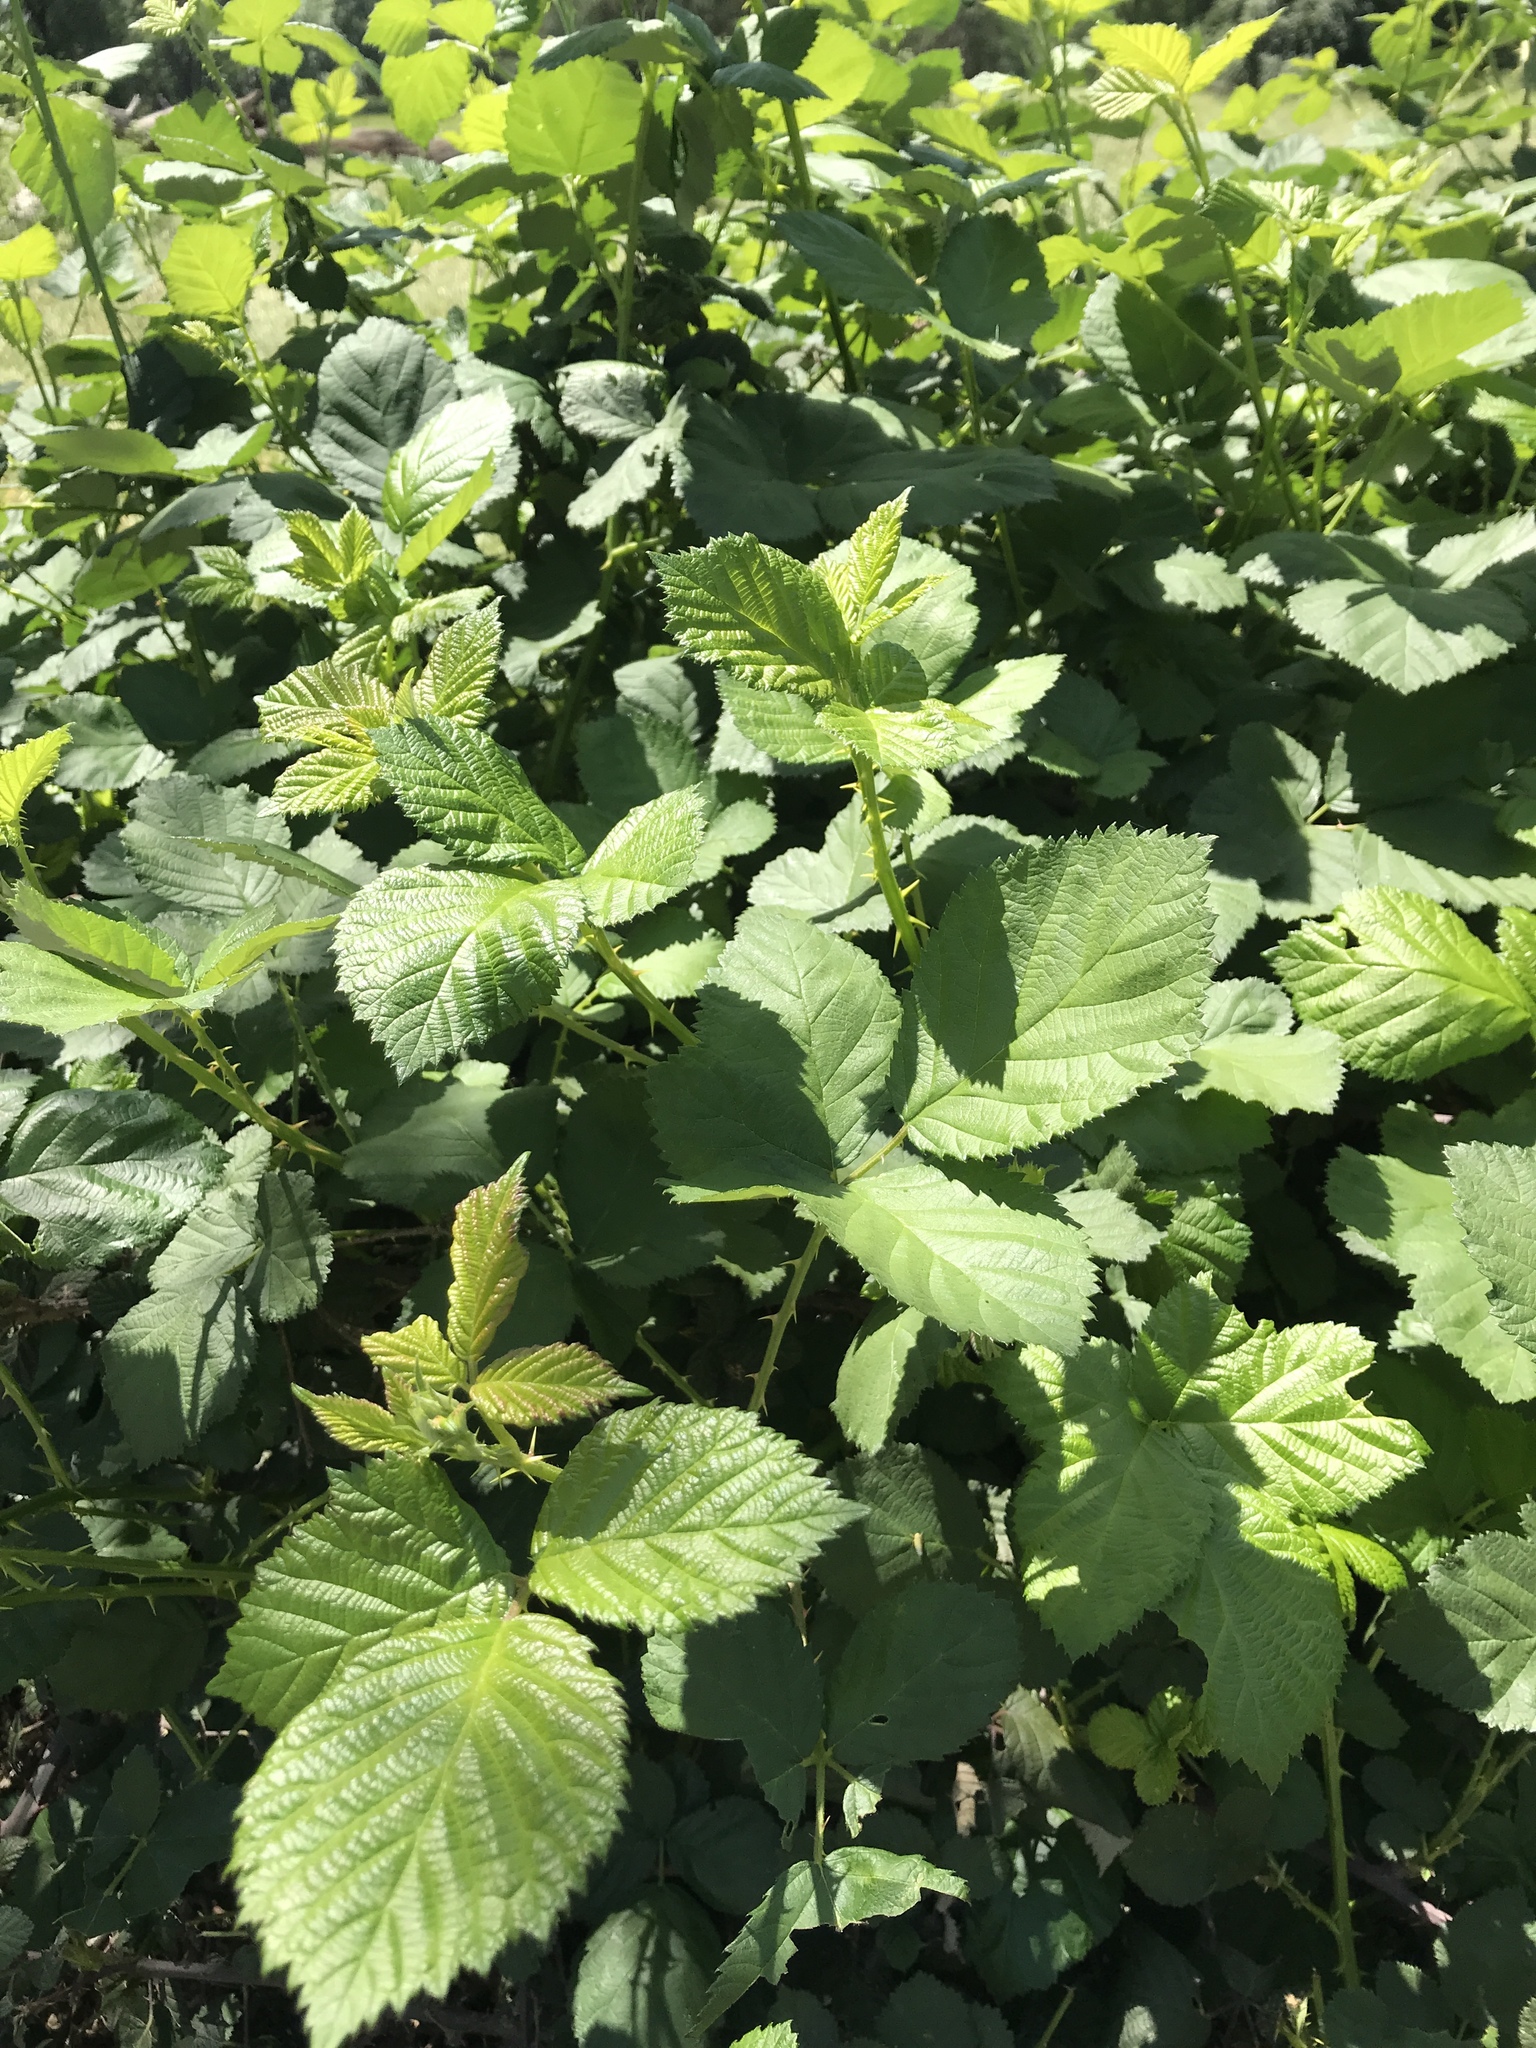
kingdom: Plantae
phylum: Tracheophyta
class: Magnoliopsida
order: Rosales
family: Rosaceae
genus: Rubus
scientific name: Rubus armeniacus
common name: Himalayan blackberry
